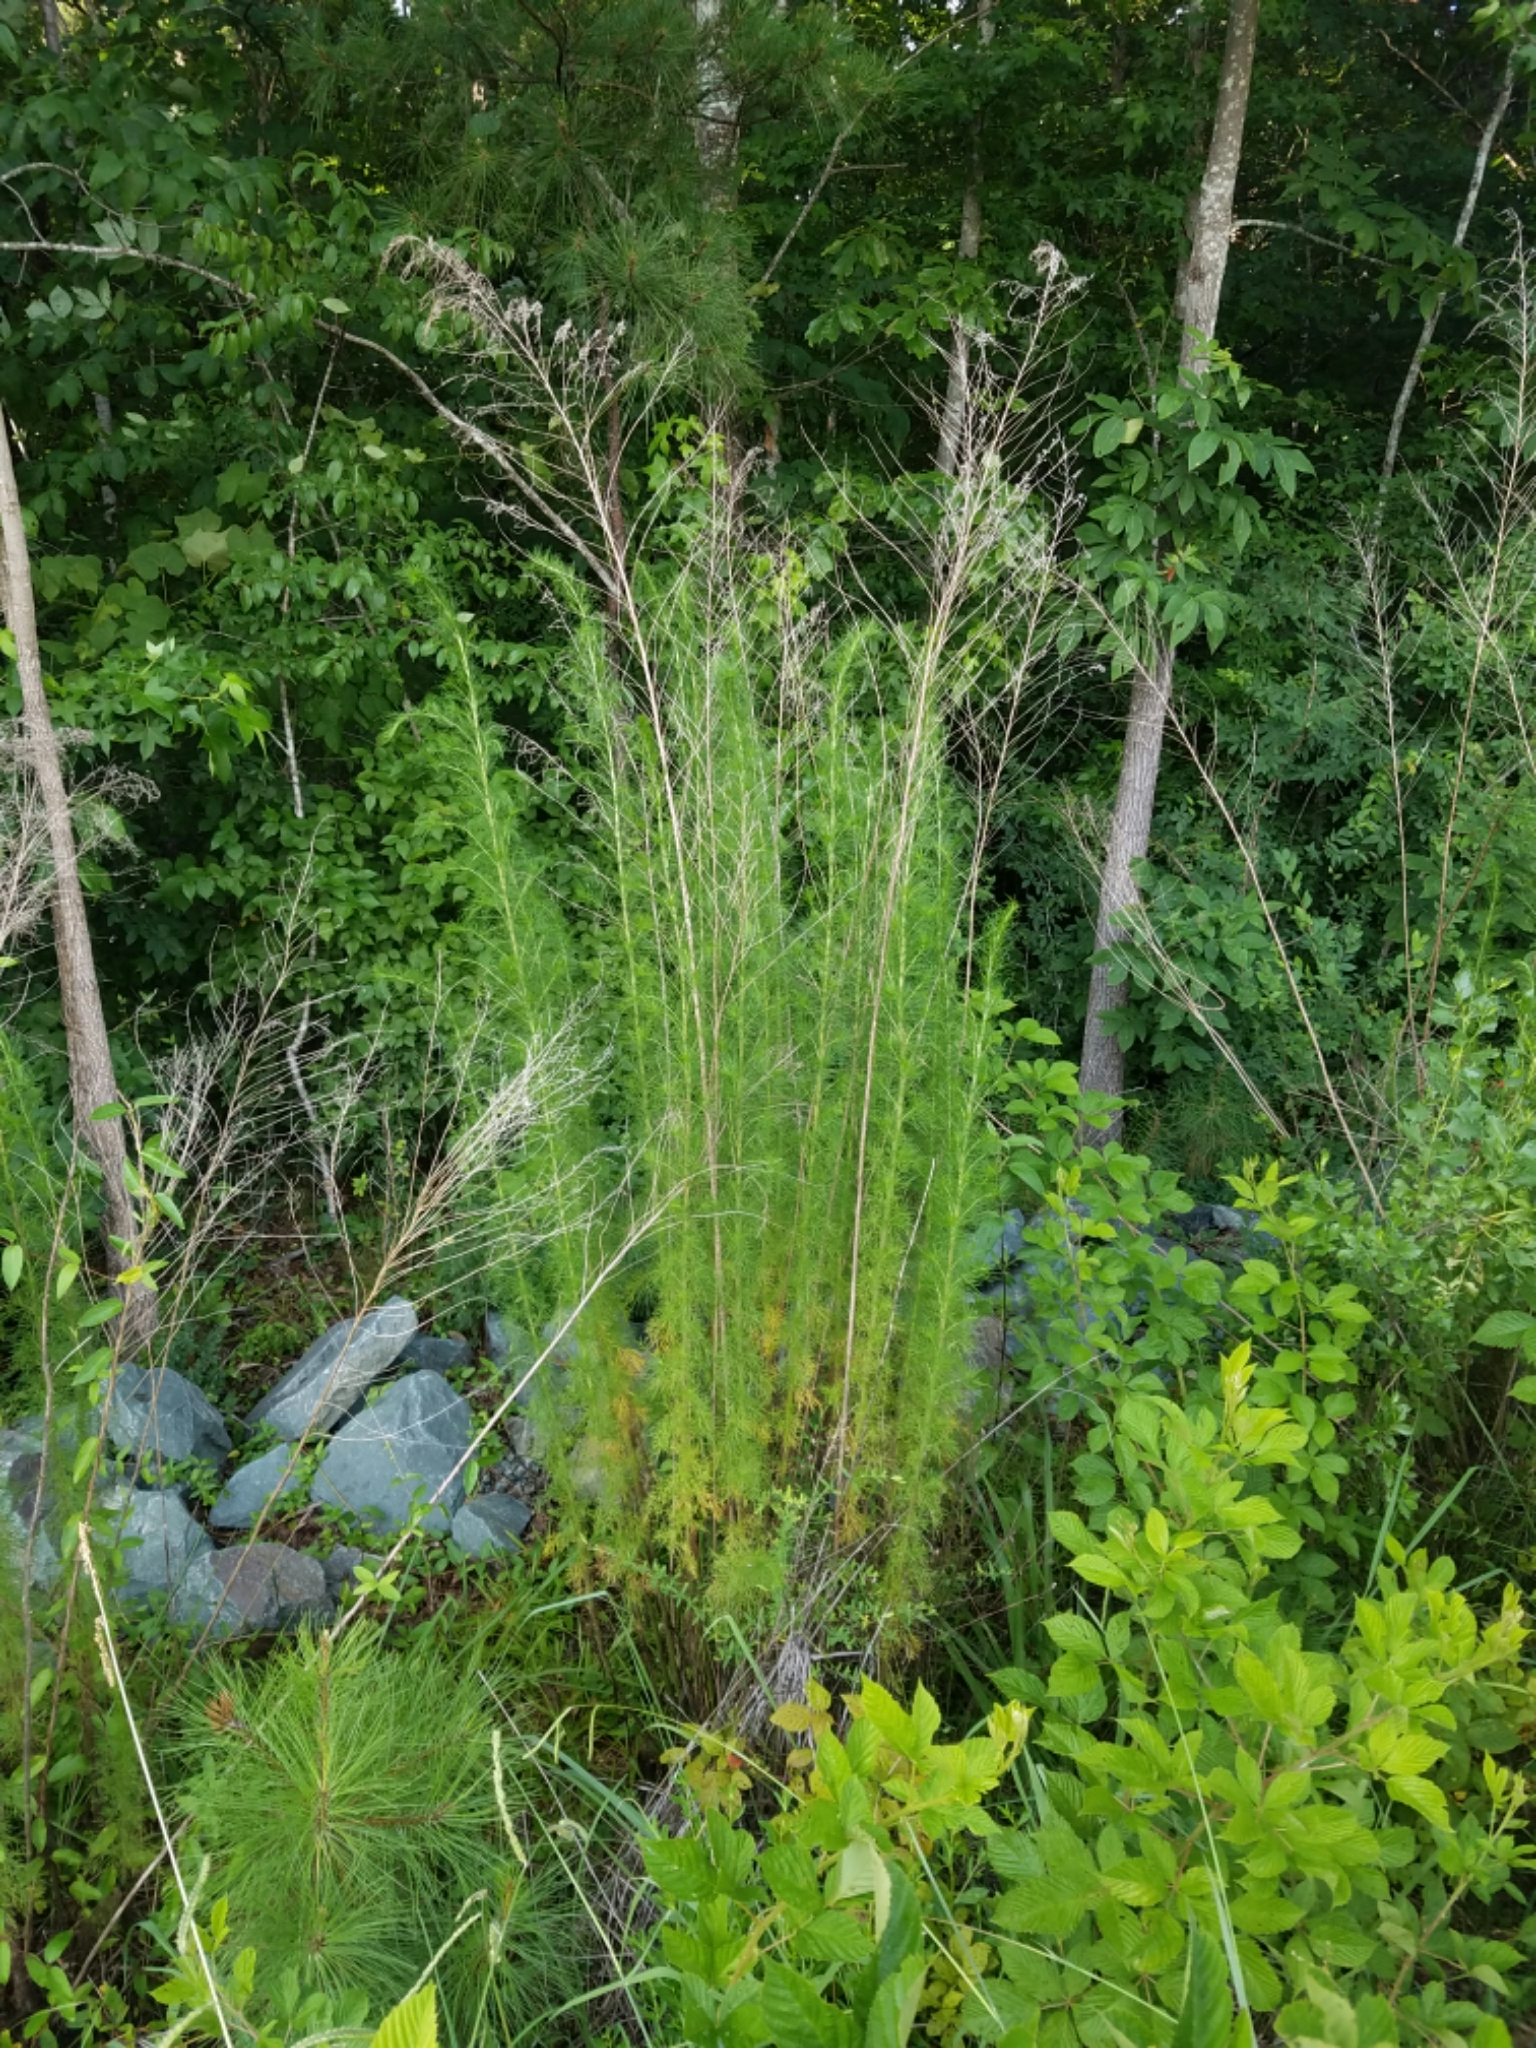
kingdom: Plantae
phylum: Tracheophyta
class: Magnoliopsida
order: Asterales
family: Asteraceae
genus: Eupatorium
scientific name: Eupatorium capillifolium
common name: Dog-fennel
